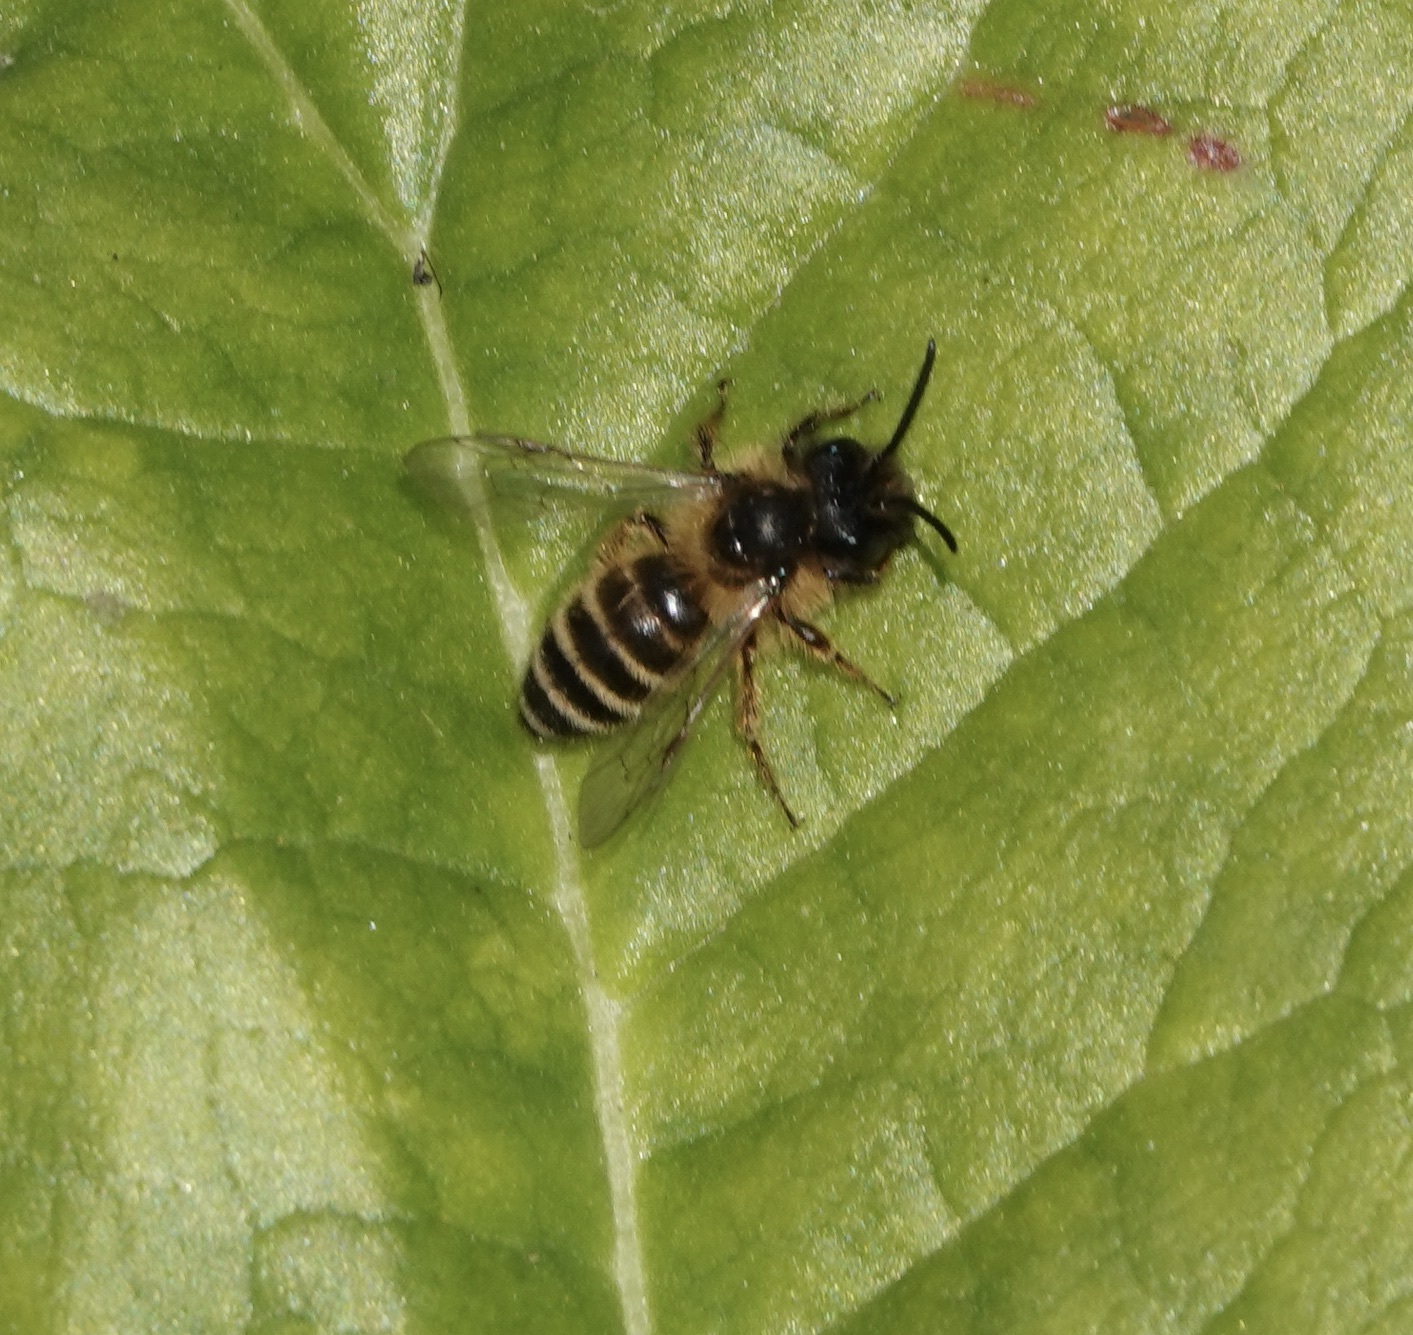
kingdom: Animalia
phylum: Arthropoda
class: Insecta
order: Hymenoptera
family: Andrenidae
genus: Andrena
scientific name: Andrena flavipes
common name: Yellow-legged mining bee
